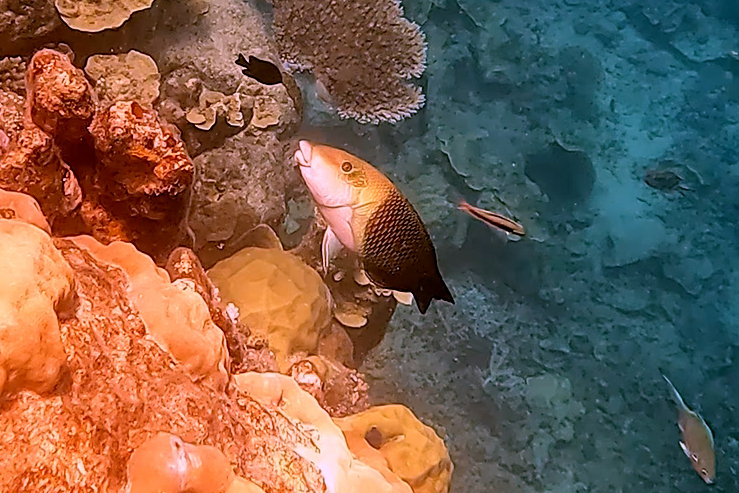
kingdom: Animalia
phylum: Chordata
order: Perciformes
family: Labridae
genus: Hemigymnus
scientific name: Hemigymnus melapterus
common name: Blackeye thicklip
